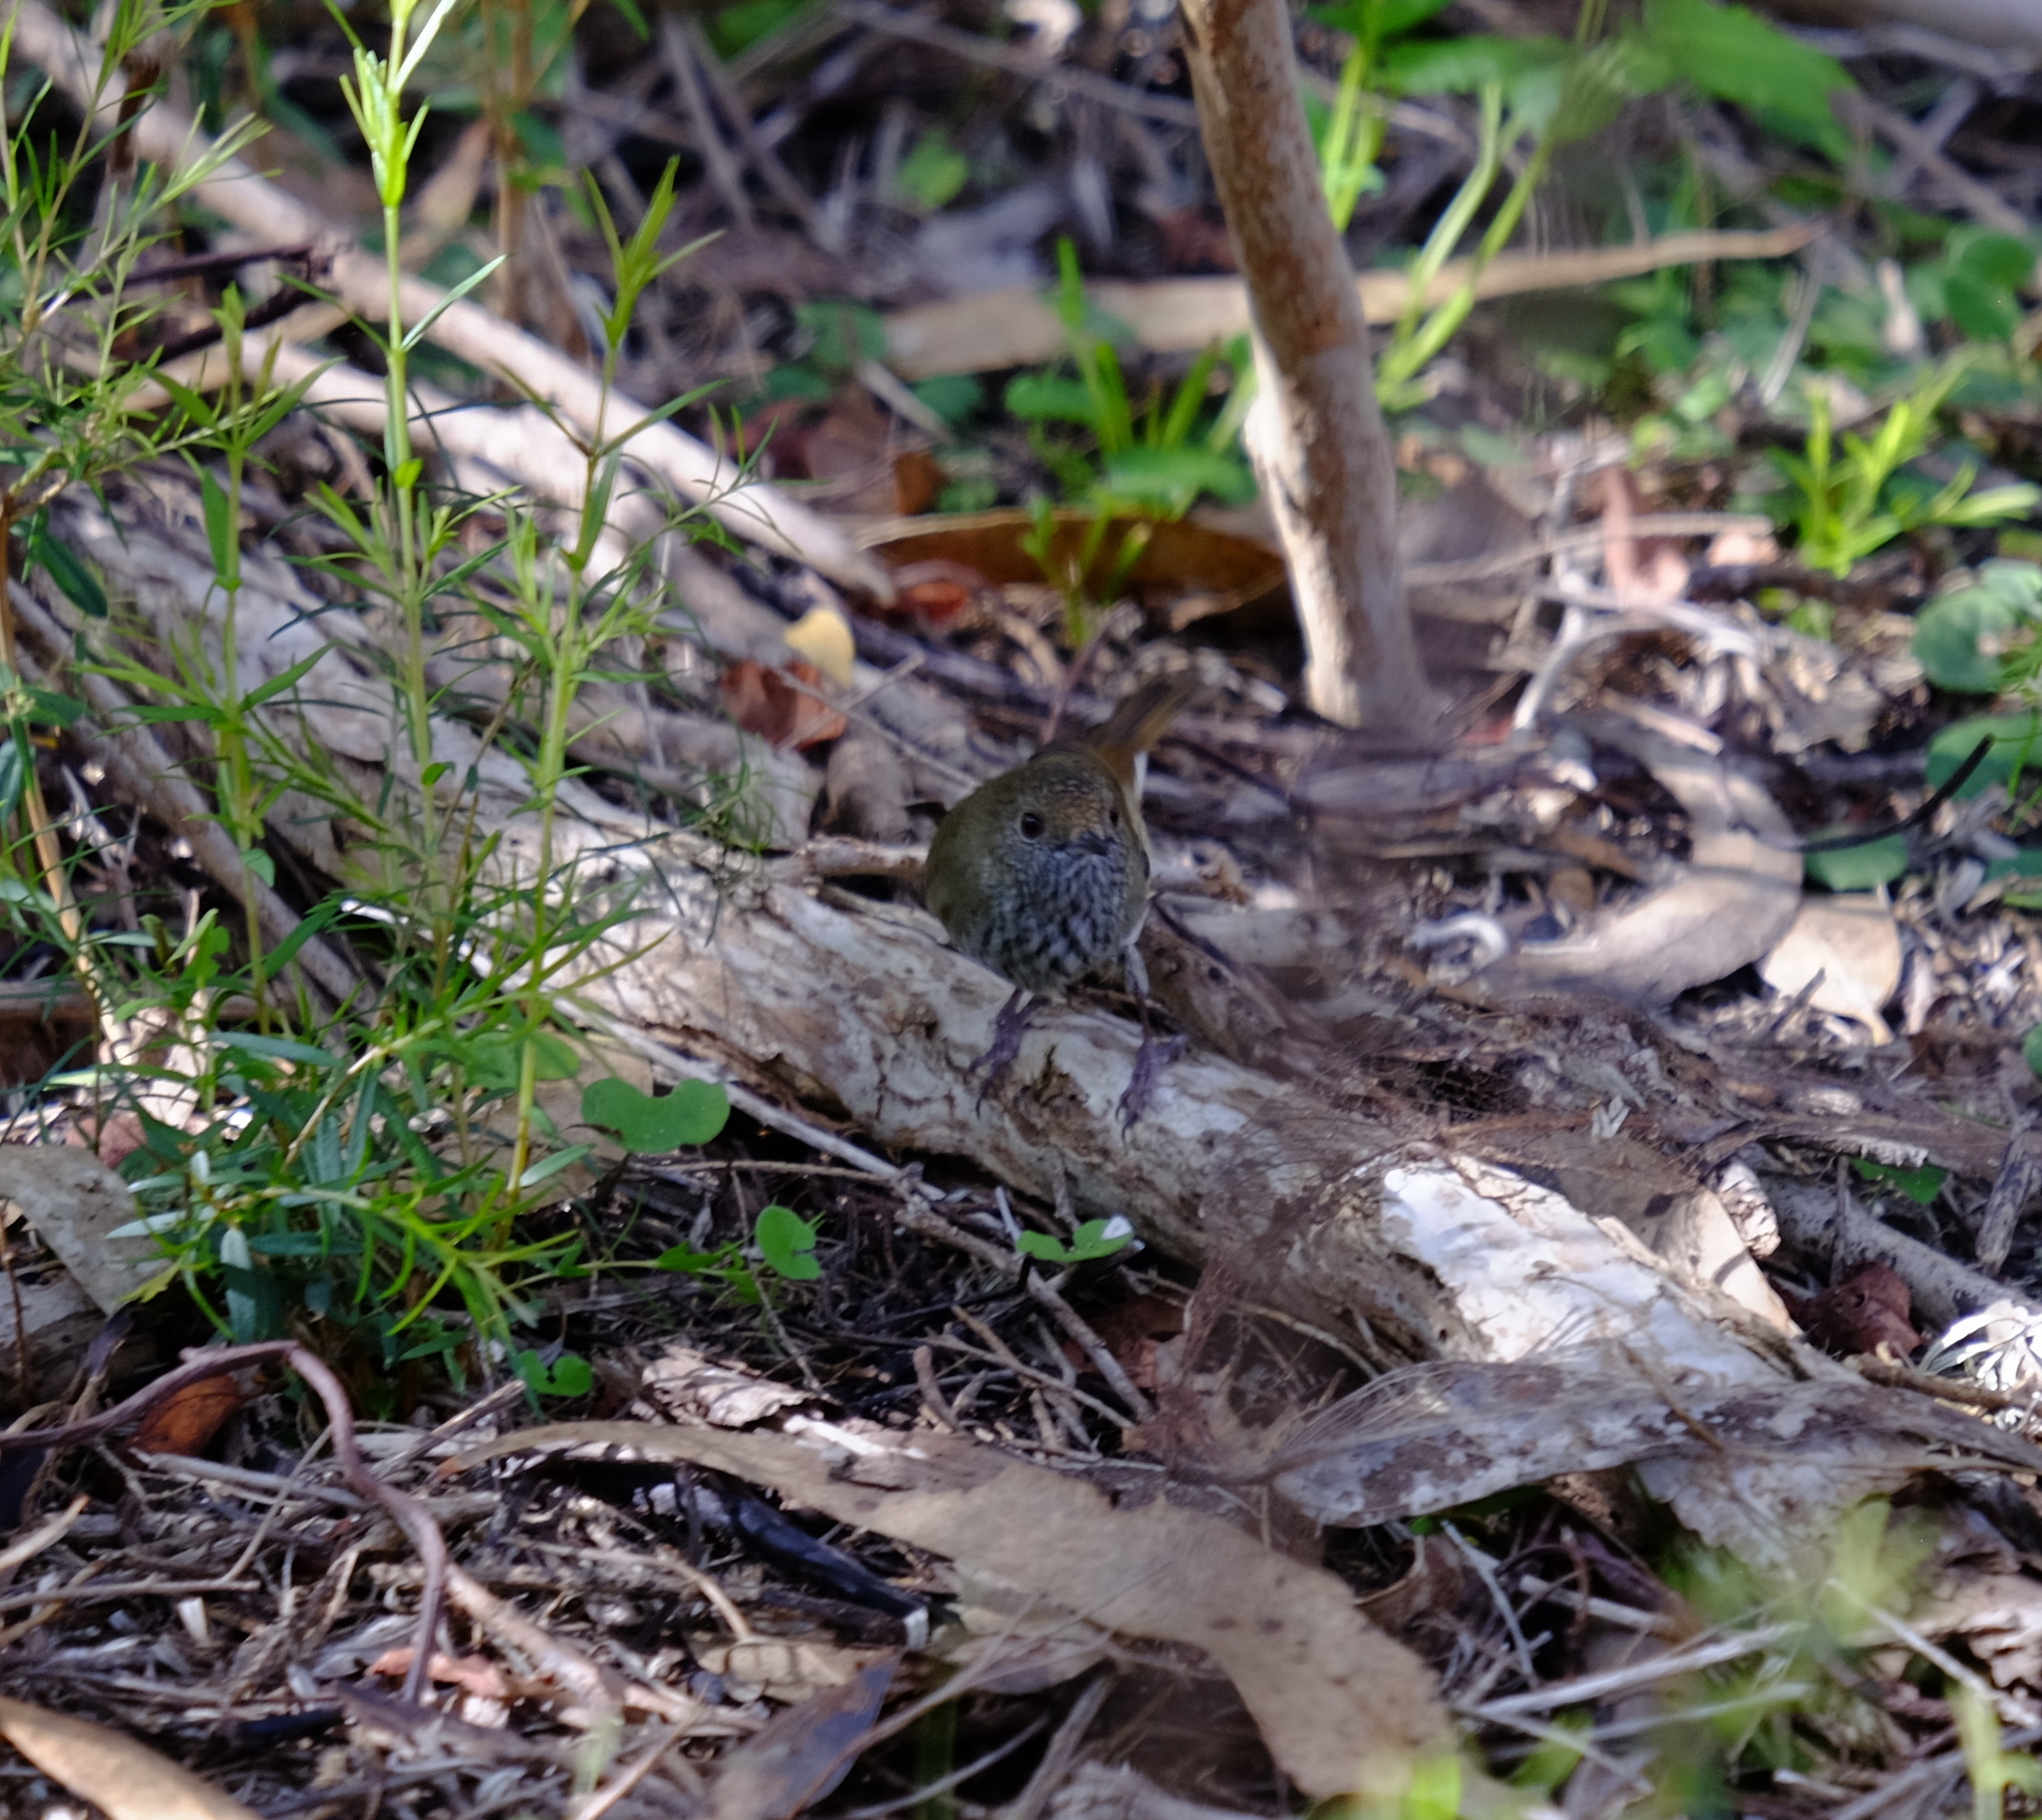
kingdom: Animalia
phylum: Chordata
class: Aves
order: Passeriformes
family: Acanthizidae
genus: Acanthiza
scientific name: Acanthiza pusilla
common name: Brown thornbill
